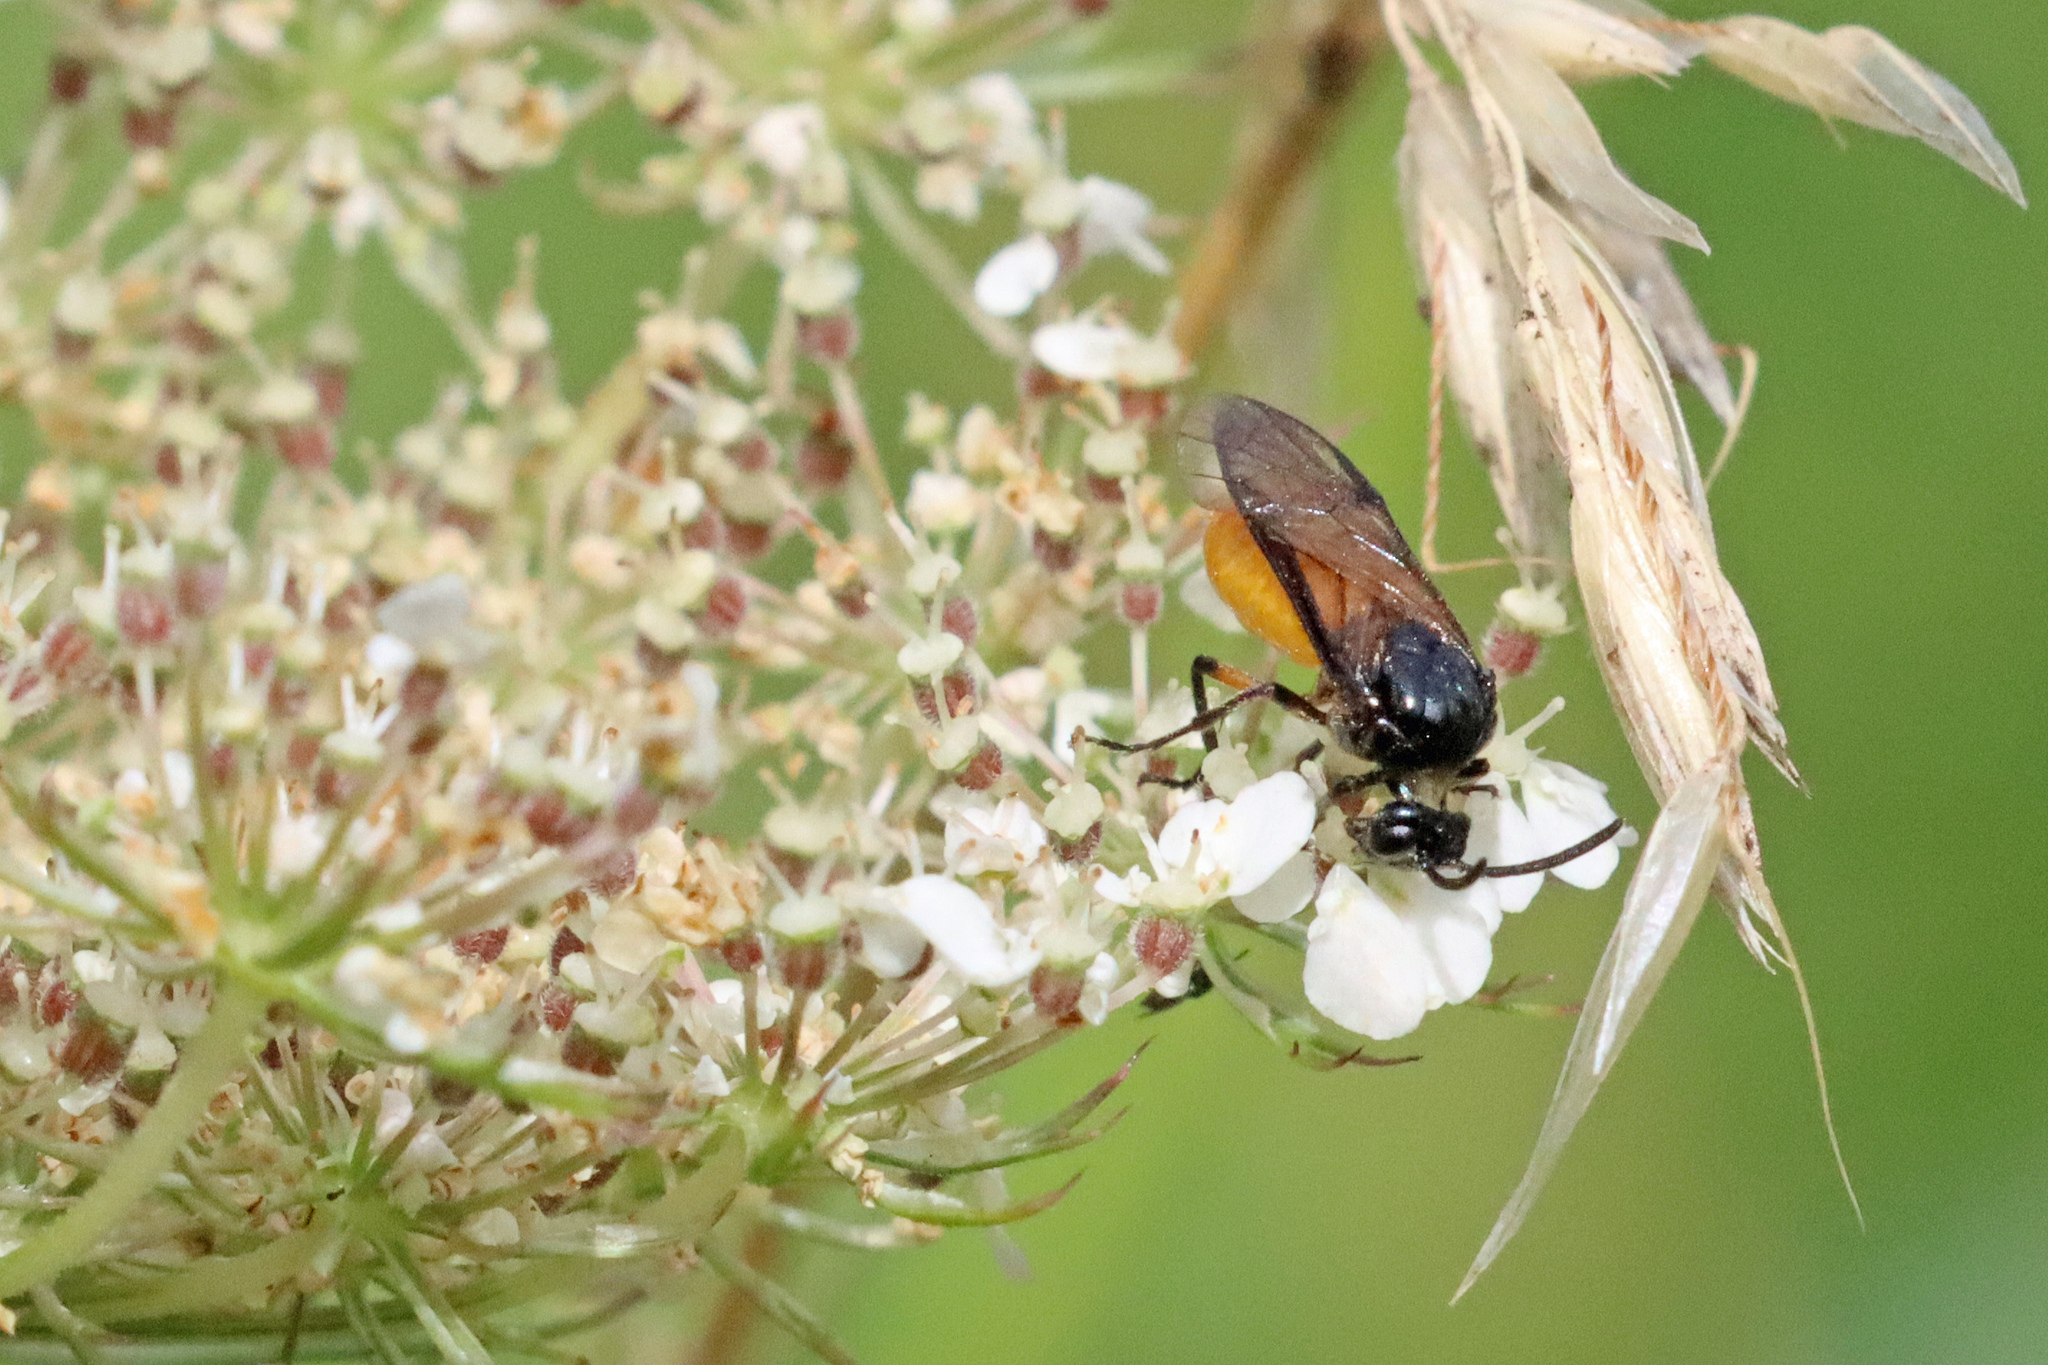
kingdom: Animalia
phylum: Arthropoda
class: Insecta
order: Hymenoptera
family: Argidae
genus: Arge
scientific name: Arge pagana
